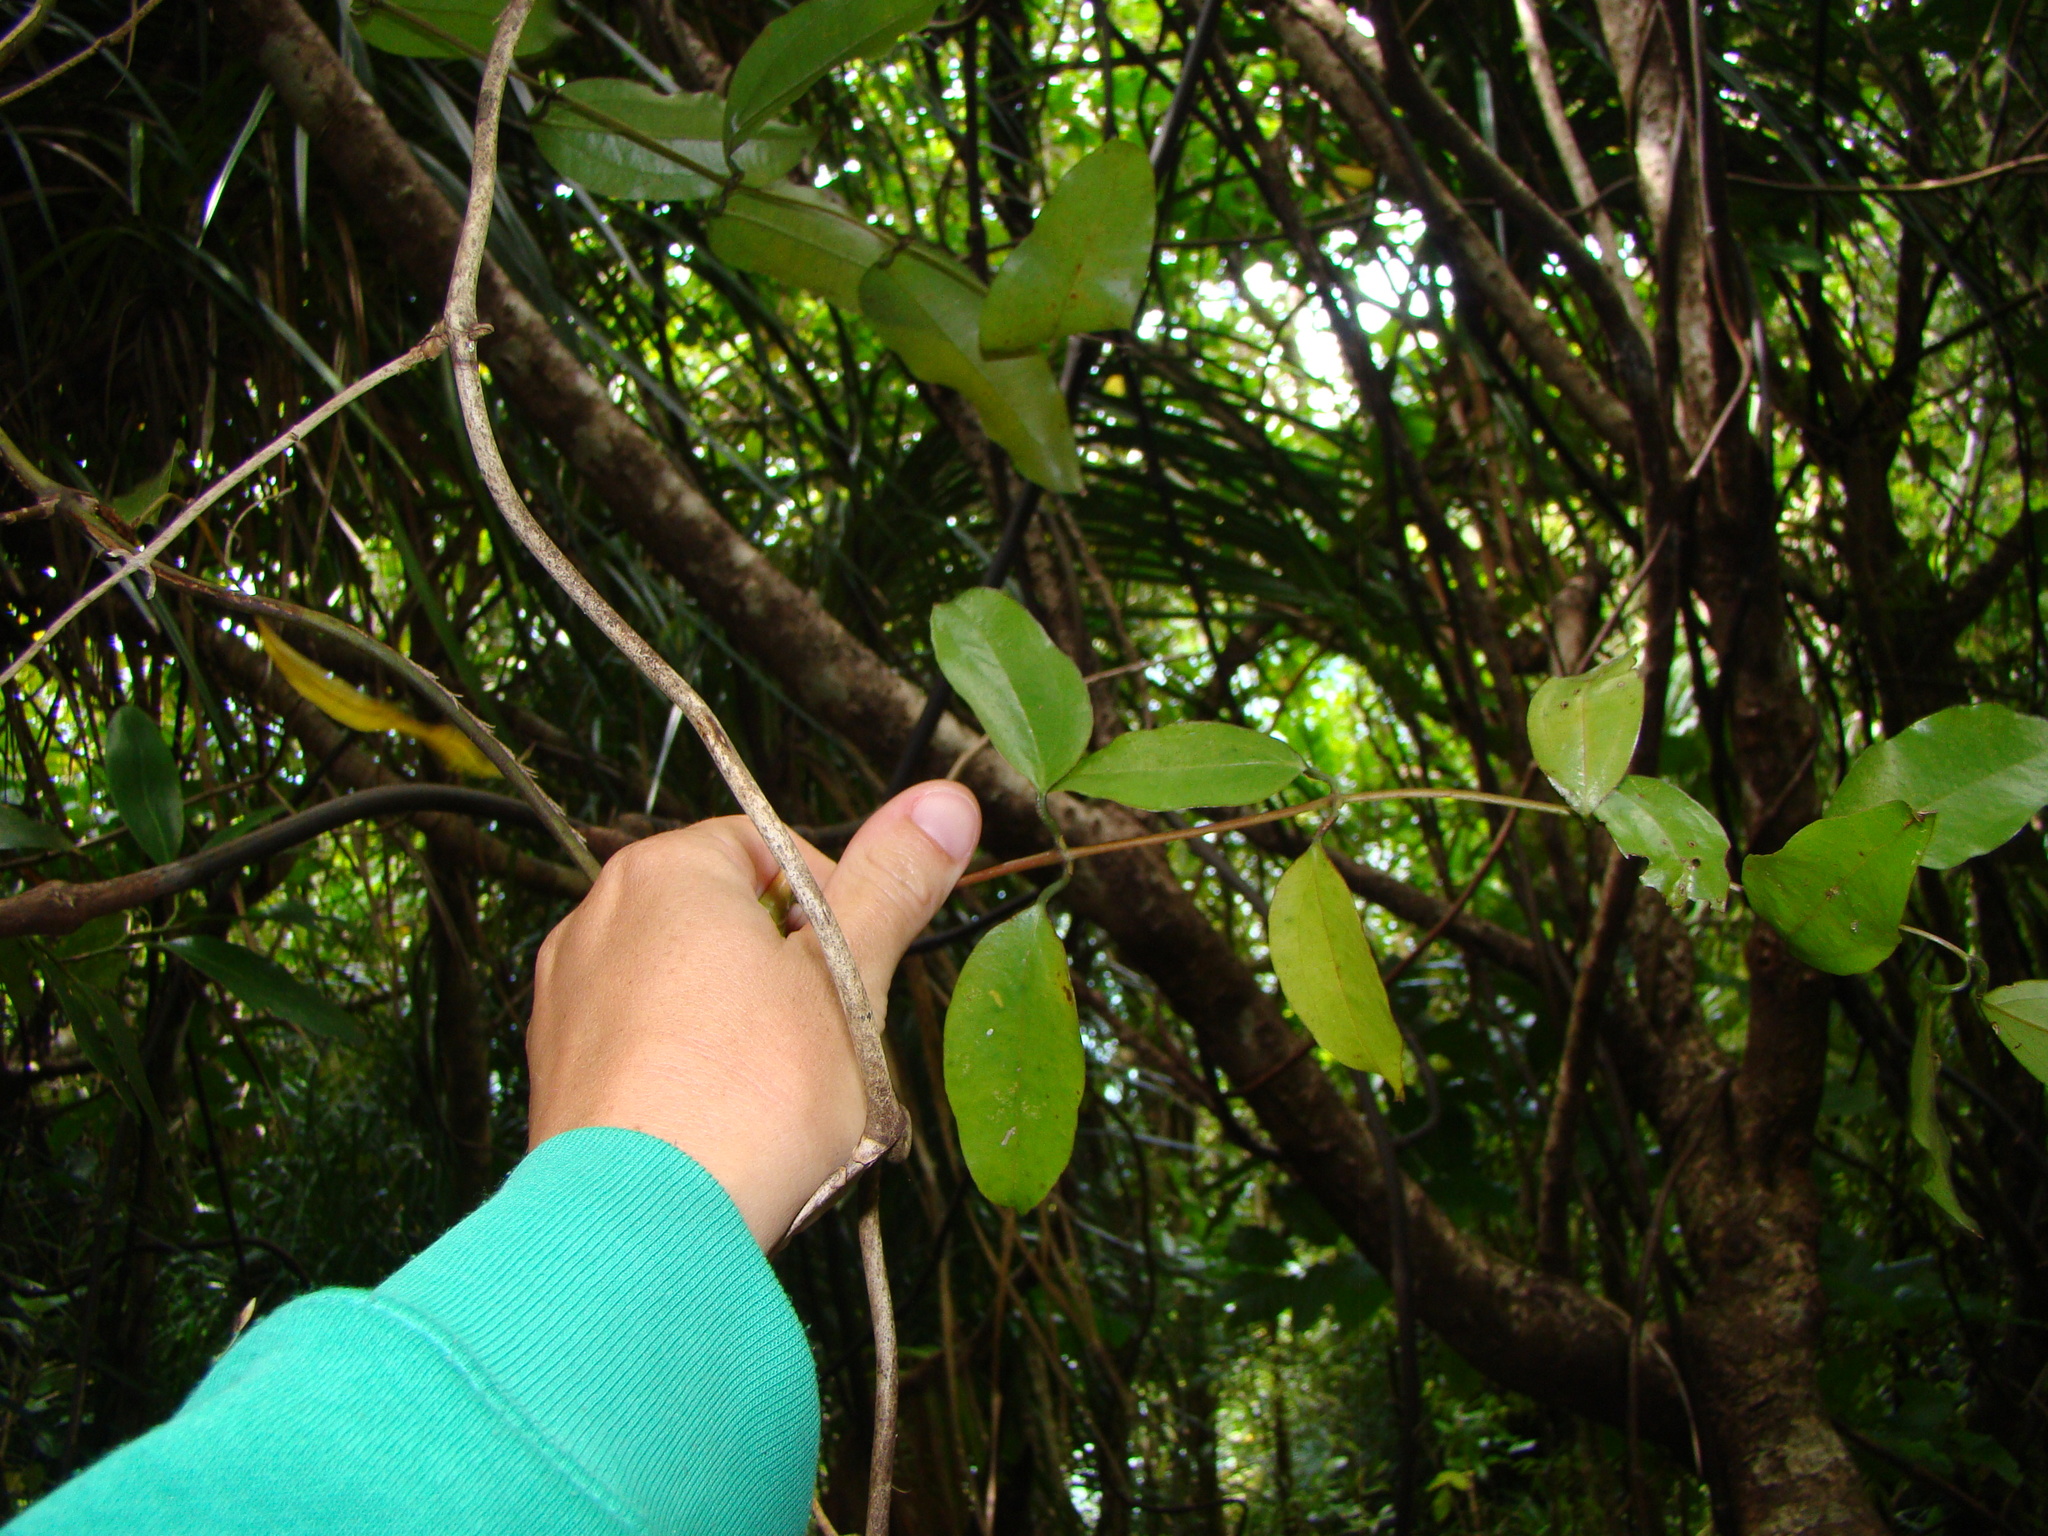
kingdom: Plantae
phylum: Tracheophyta
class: Liliopsida
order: Liliales
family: Ripogonaceae
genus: Ripogonum
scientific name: Ripogonum scandens
